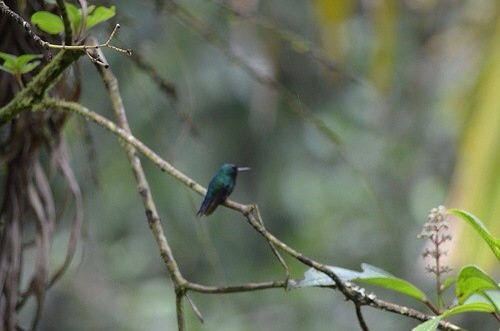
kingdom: Animalia
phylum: Chordata
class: Aves
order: Apodiformes
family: Trochilidae
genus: Riccordia
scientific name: Riccordia maugaeus
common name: Puerto rican emerald
